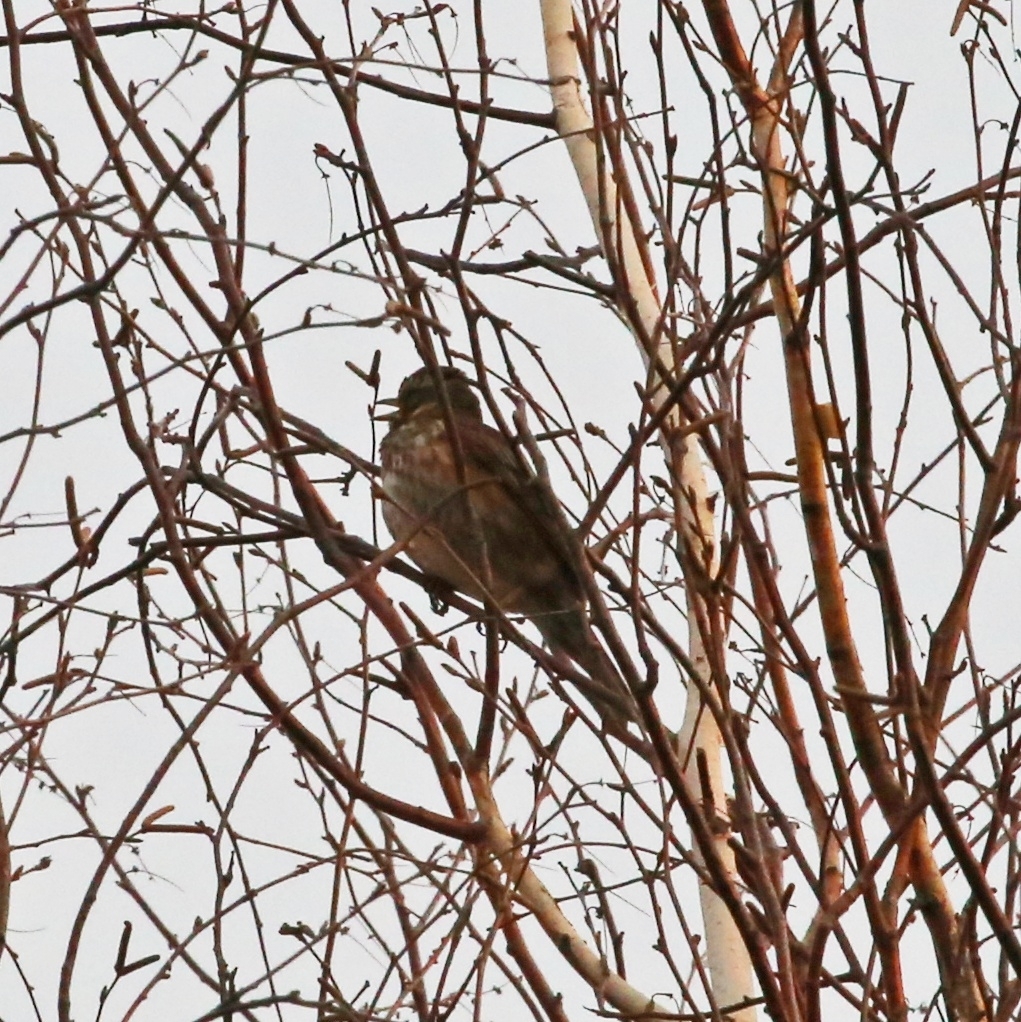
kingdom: Animalia
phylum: Chordata
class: Aves
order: Passeriformes
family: Turdidae
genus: Turdus
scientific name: Turdus iliacus
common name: Redwing
